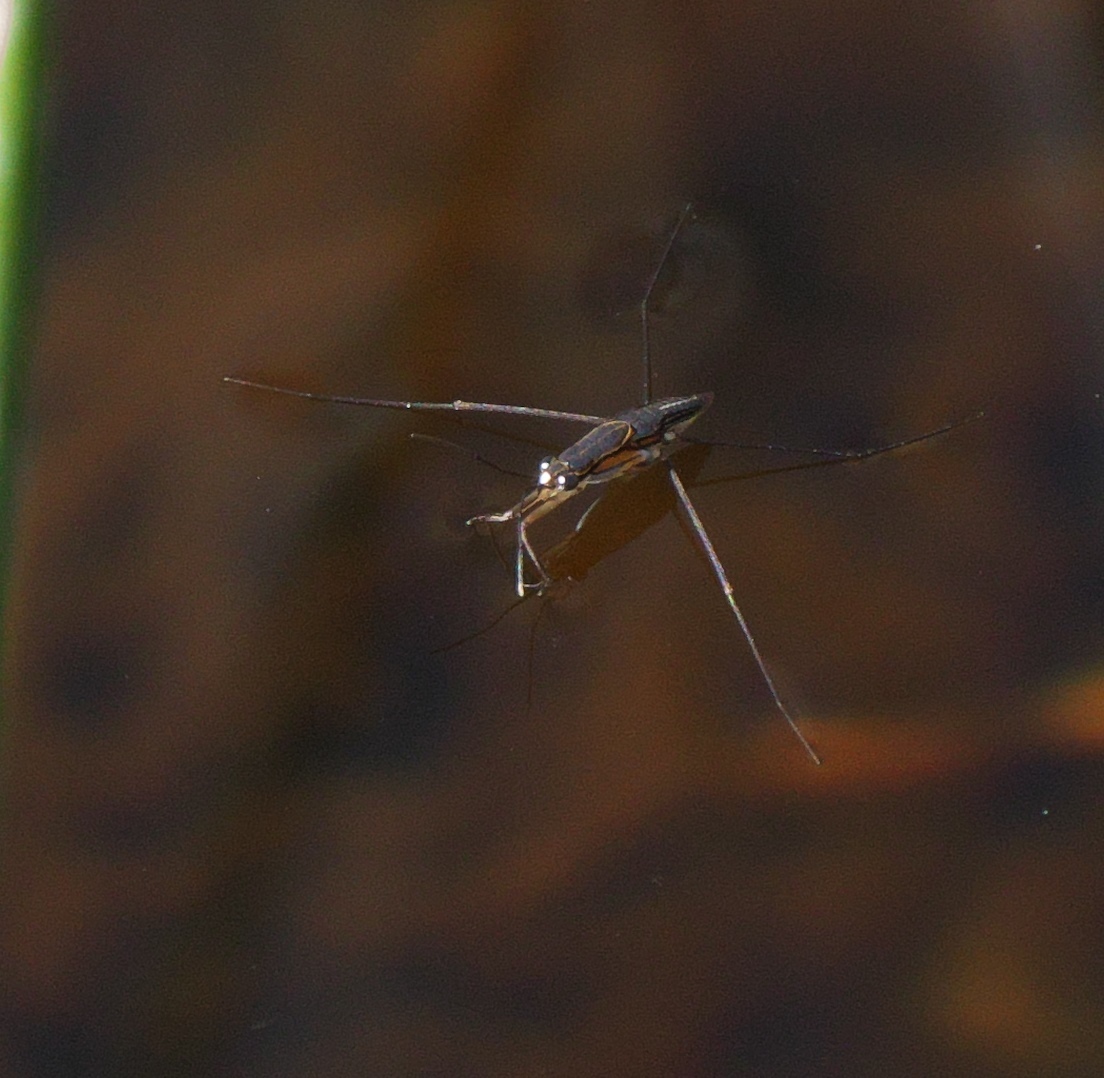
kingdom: Animalia
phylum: Arthropoda
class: Insecta
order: Hemiptera
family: Gerridae
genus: Limnogonus
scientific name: Limnogonus franciscanus
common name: Franciscan pond skater
